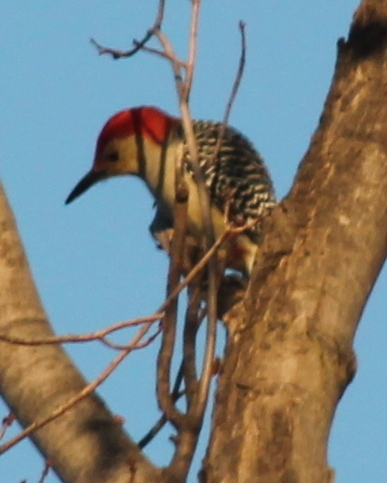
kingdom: Animalia
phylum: Chordata
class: Aves
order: Piciformes
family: Picidae
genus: Melanerpes
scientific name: Melanerpes carolinus
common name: Red-bellied woodpecker
